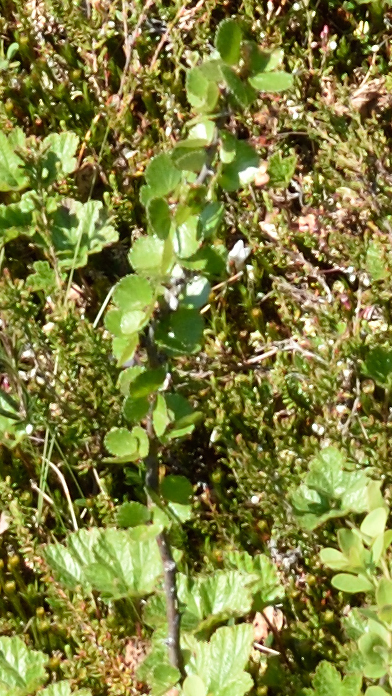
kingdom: Plantae
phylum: Tracheophyta
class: Magnoliopsida
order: Fagales
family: Betulaceae
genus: Betula
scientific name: Betula nana
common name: Arctic dwarf birch
